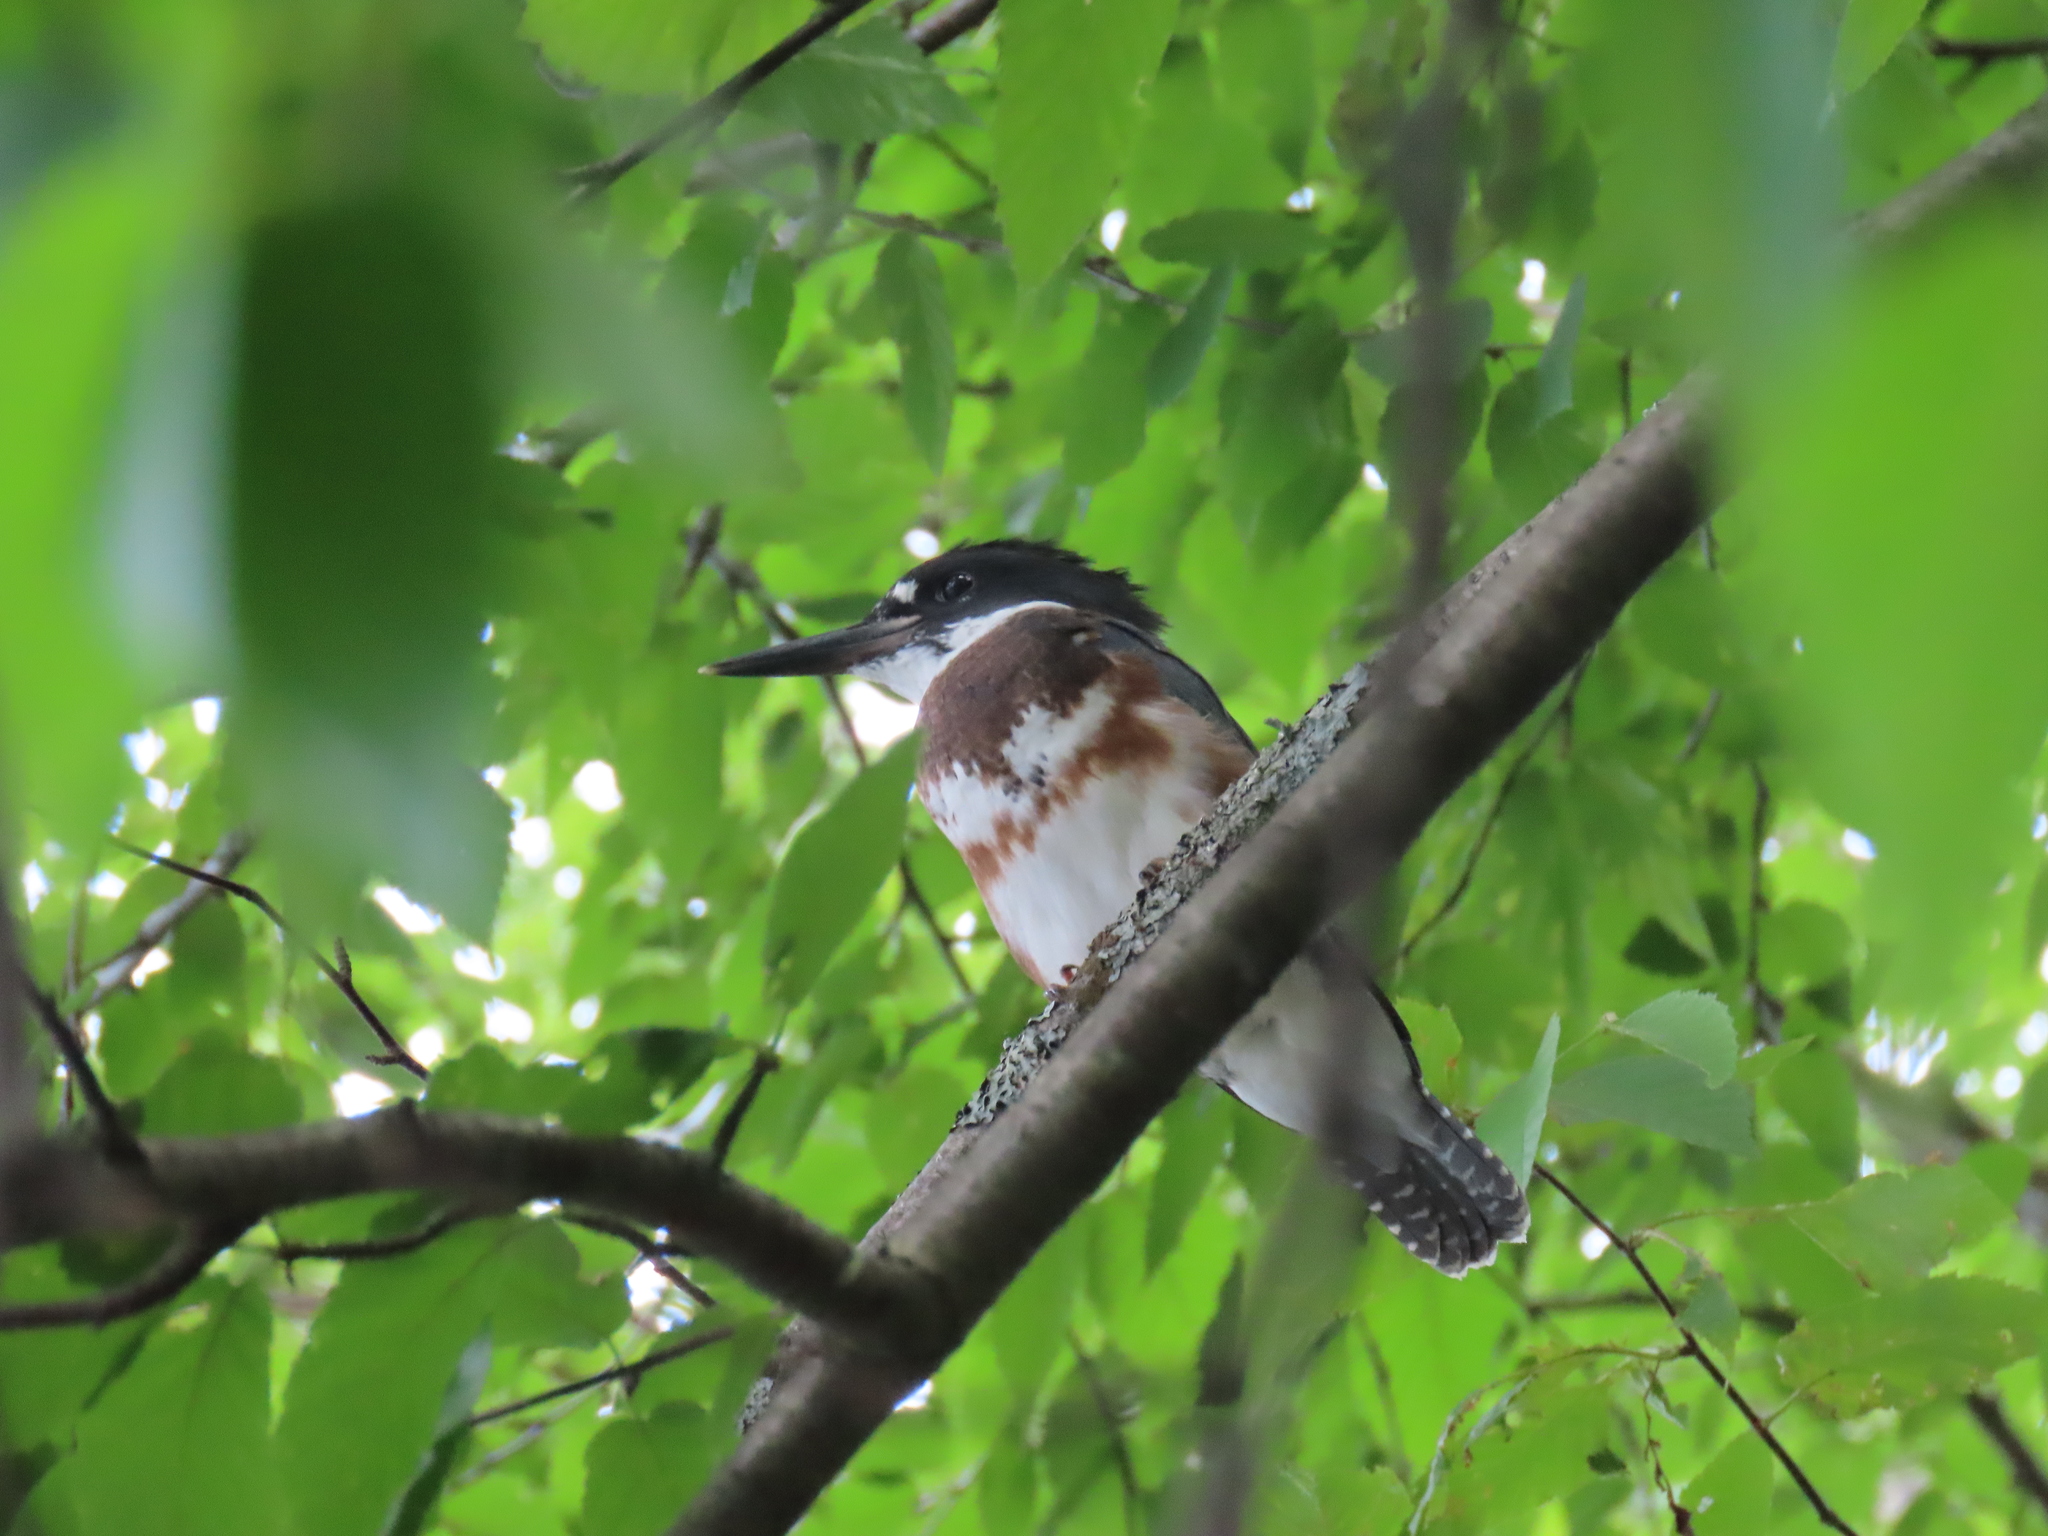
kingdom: Animalia
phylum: Chordata
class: Aves
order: Coraciiformes
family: Alcedinidae
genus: Megaceryle
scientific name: Megaceryle alcyon
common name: Belted kingfisher
